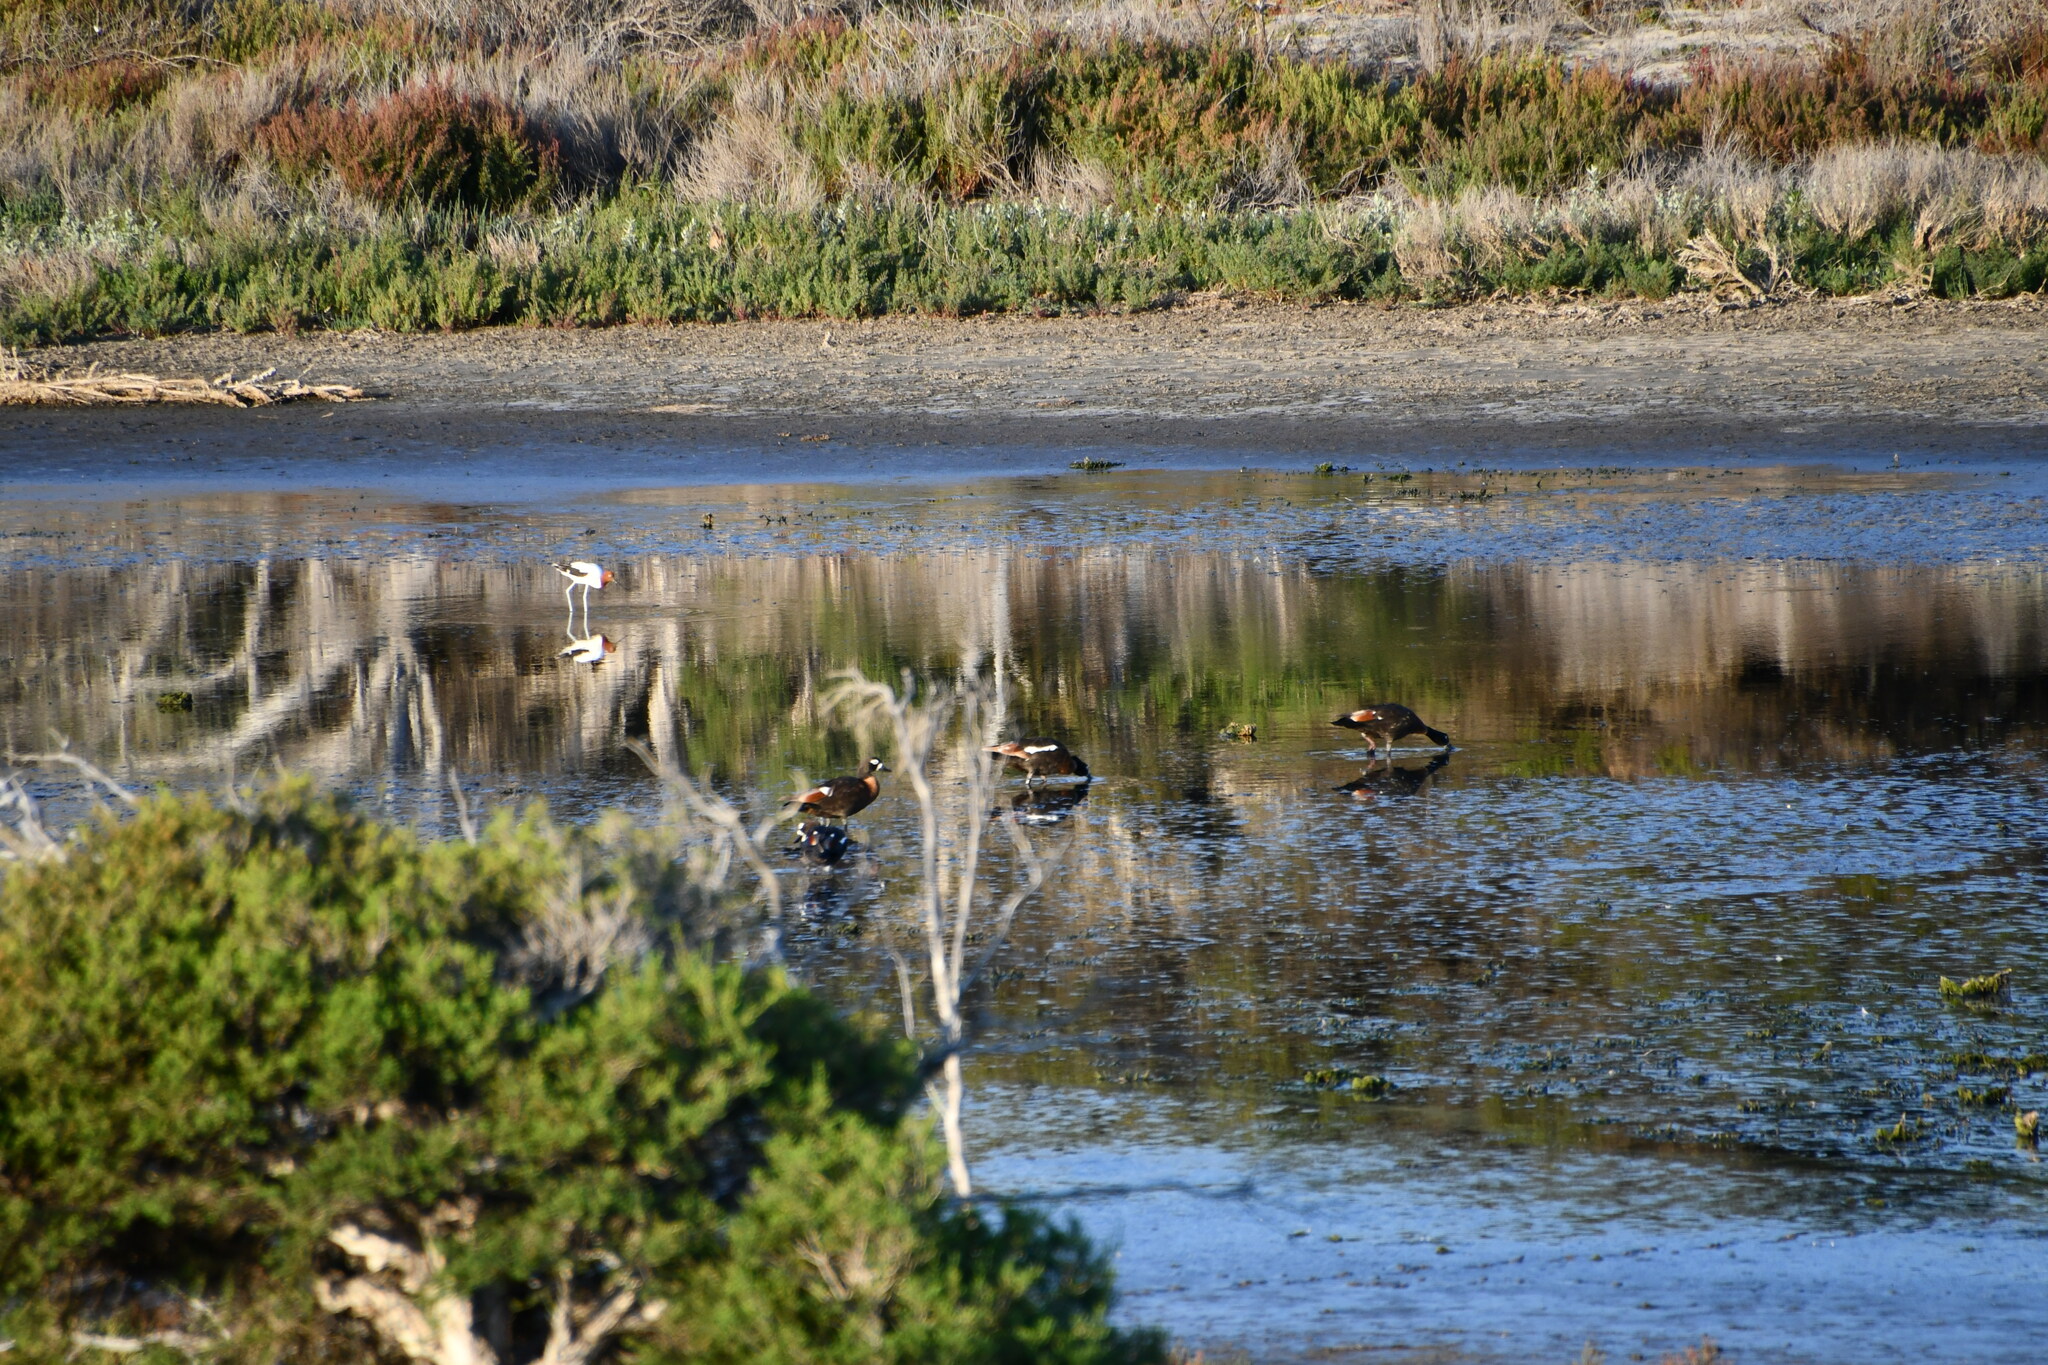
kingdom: Animalia
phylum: Chordata
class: Aves
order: Anseriformes
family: Anatidae
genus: Tadorna
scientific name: Tadorna tadornoides
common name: Australian shelduck
